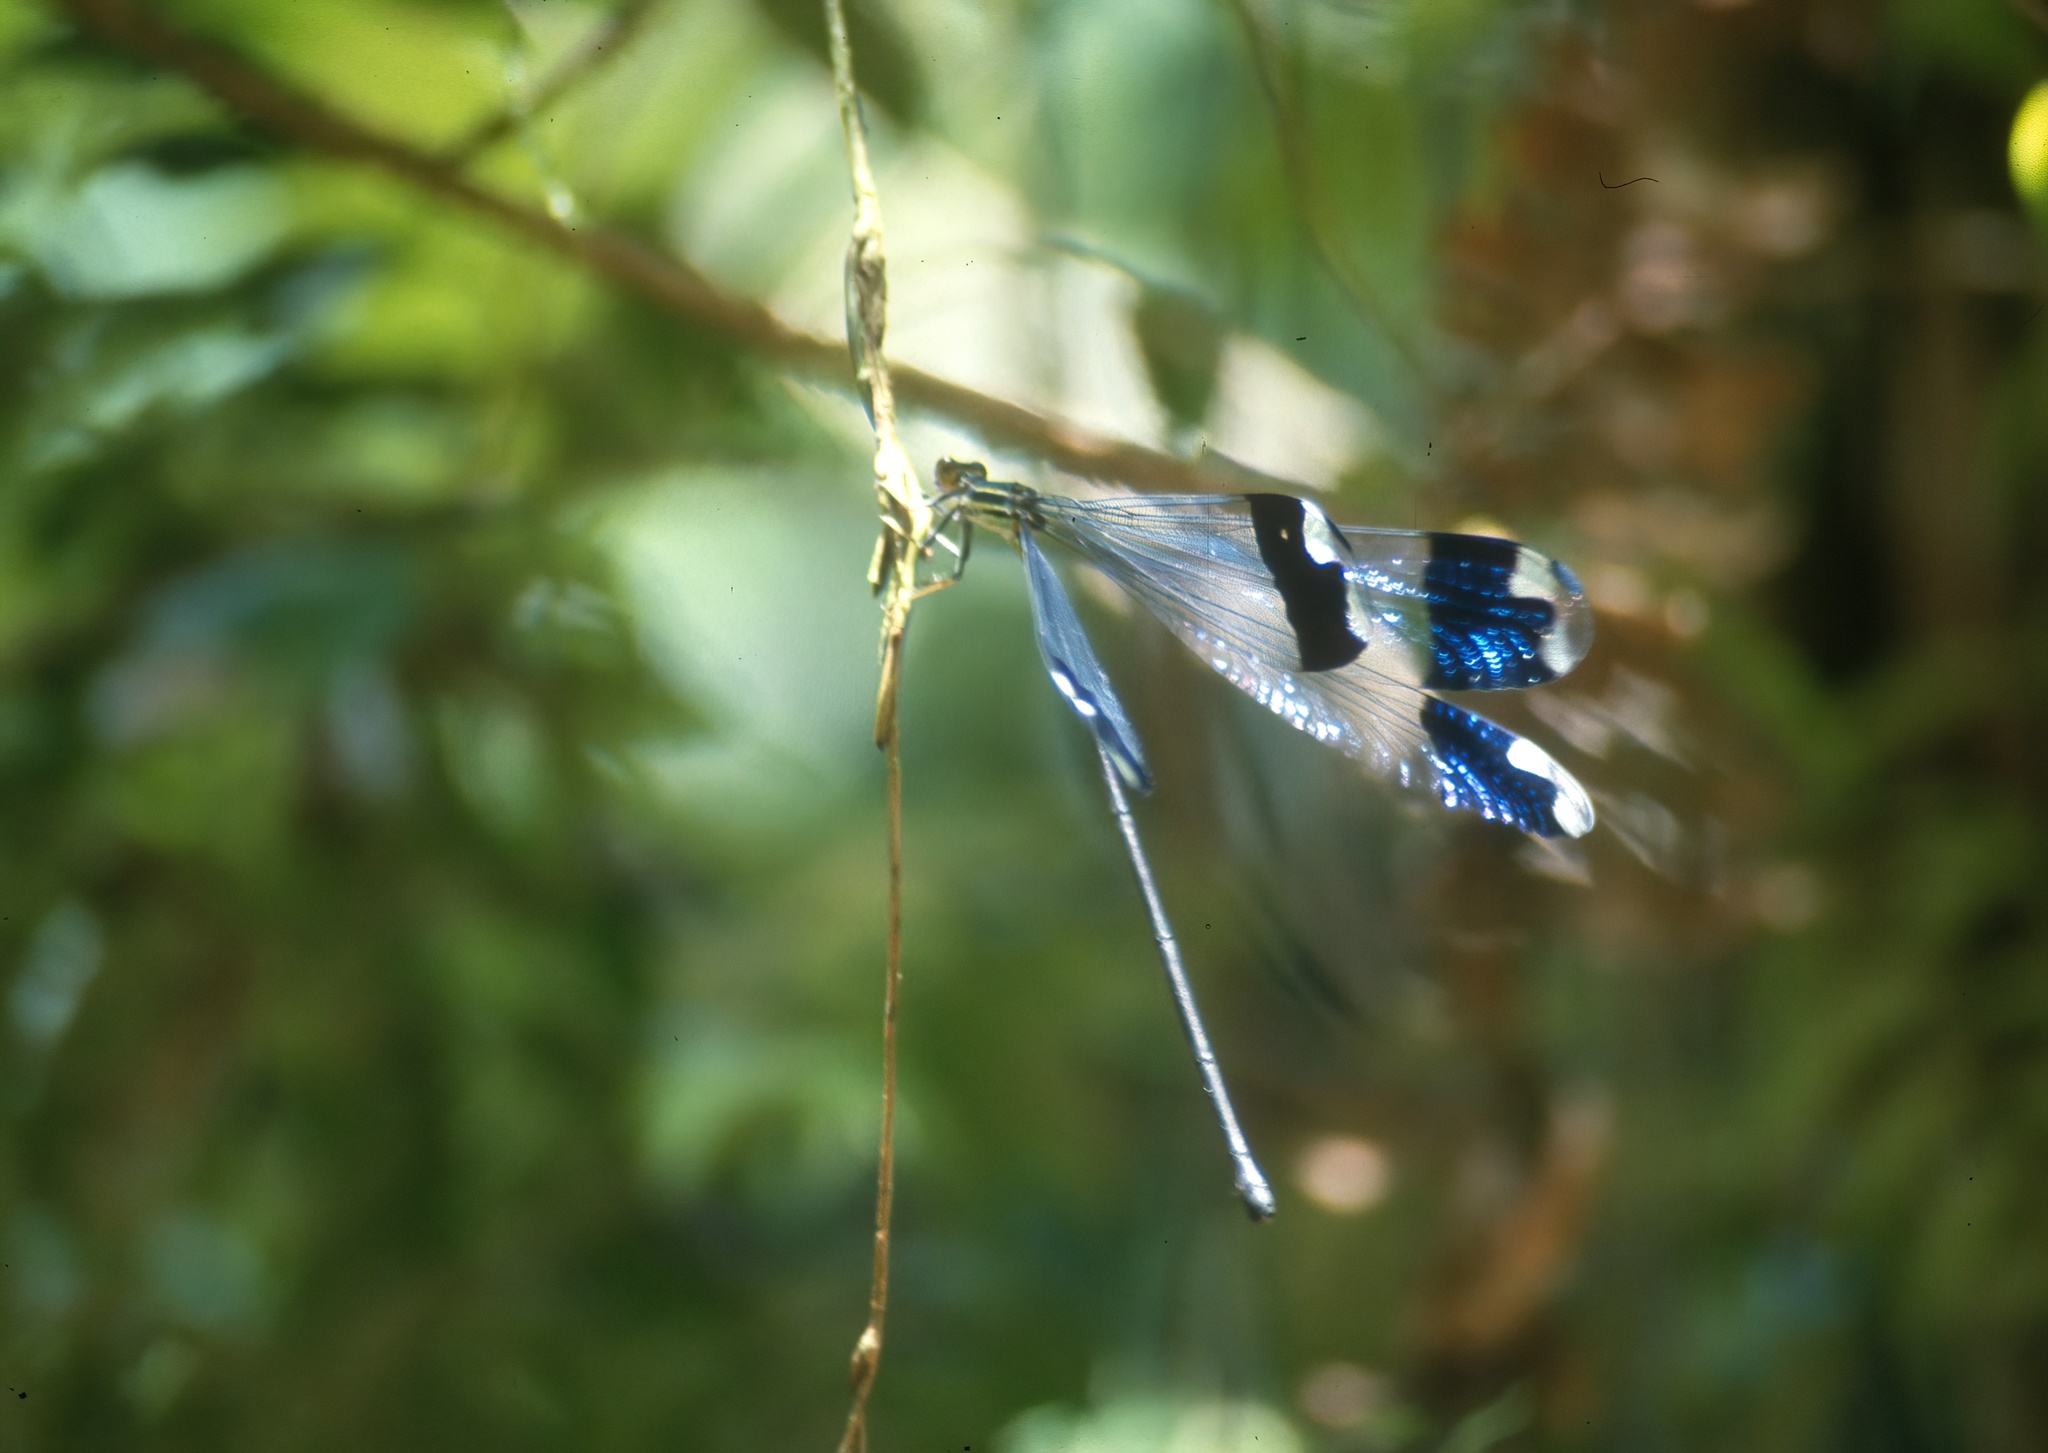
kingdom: Animalia
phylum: Arthropoda
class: Insecta
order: Odonata
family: Coenagrionidae
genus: Megaloprepus
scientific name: Megaloprepus caerulatus
